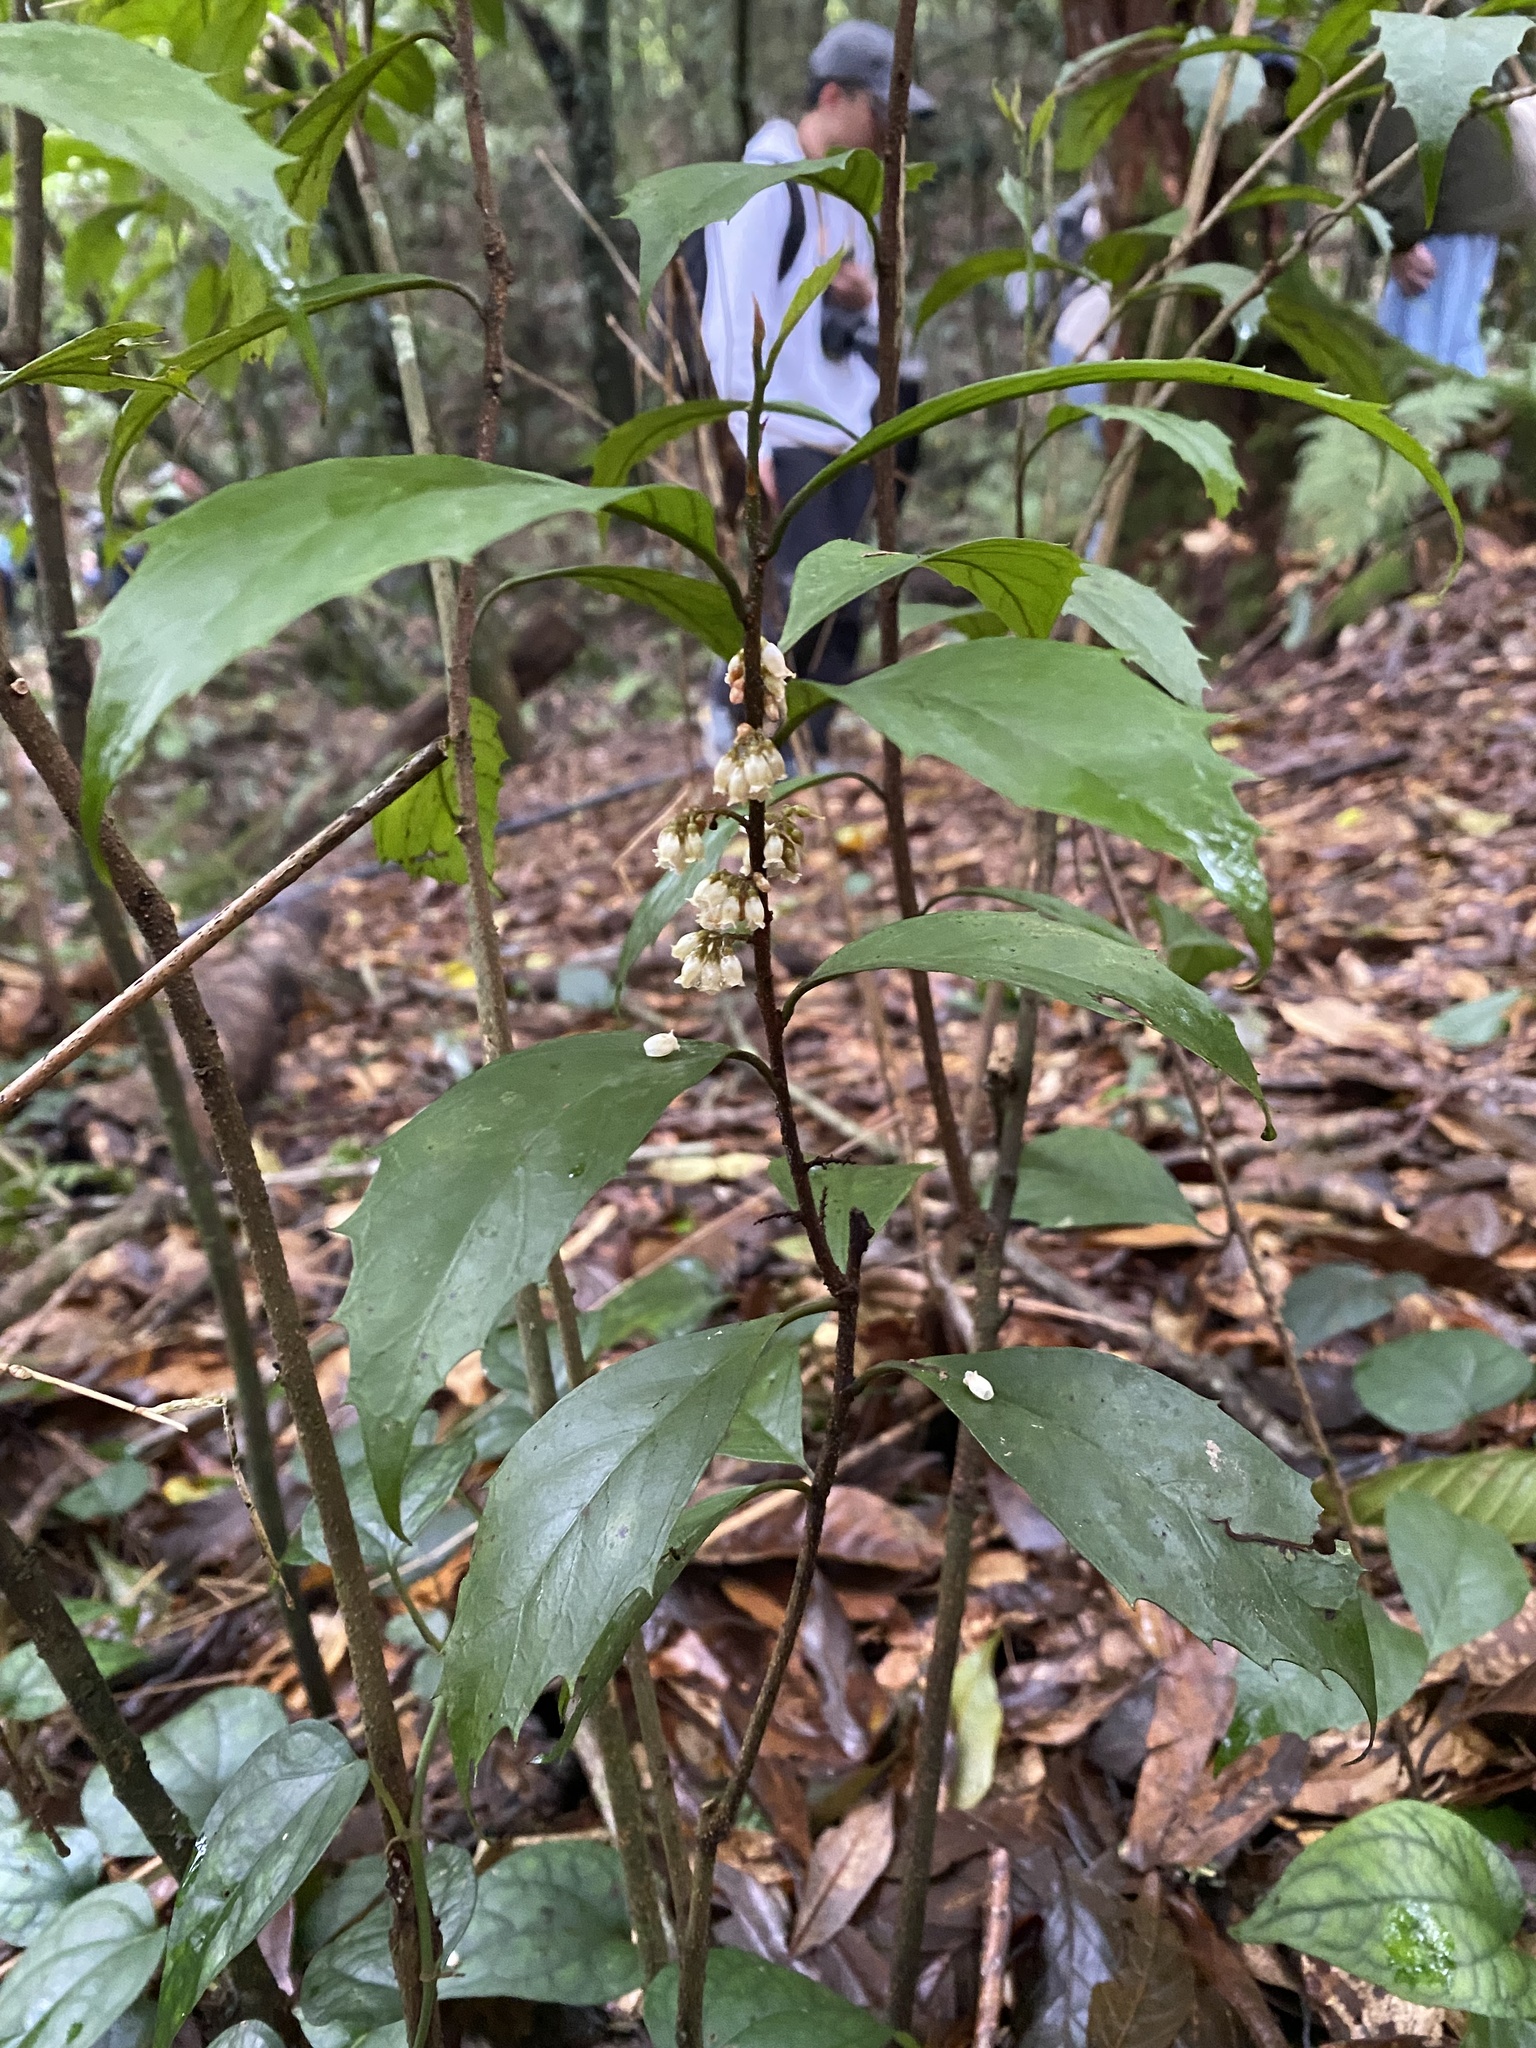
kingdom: Plantae
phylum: Tracheophyta
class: Magnoliopsida
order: Ericales
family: Primulaceae
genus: Maesa
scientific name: Maesa japonica
